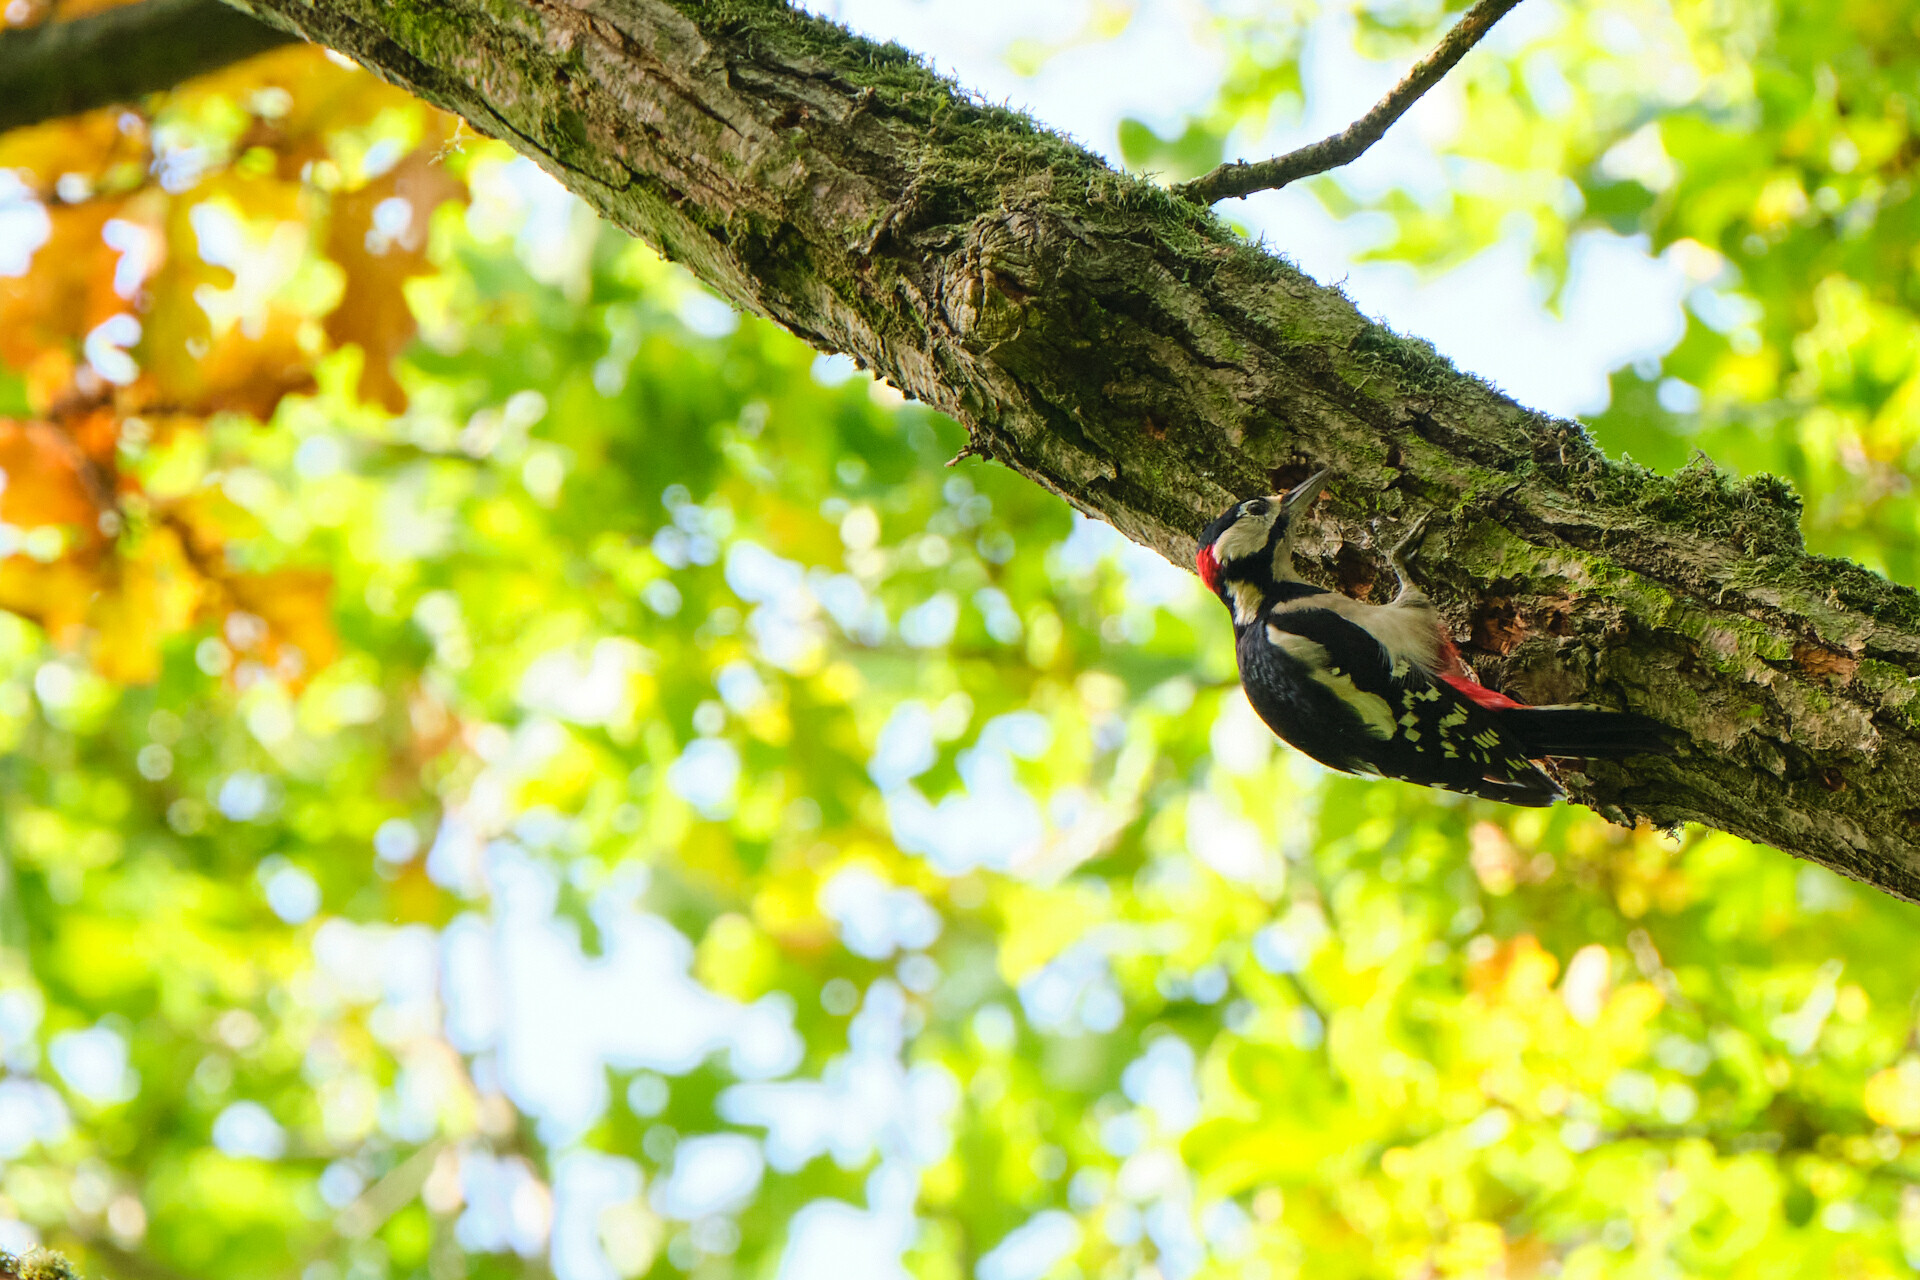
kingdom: Animalia
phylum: Chordata
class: Aves
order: Piciformes
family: Picidae
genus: Dendrocopos
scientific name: Dendrocopos major
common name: Great spotted woodpecker
